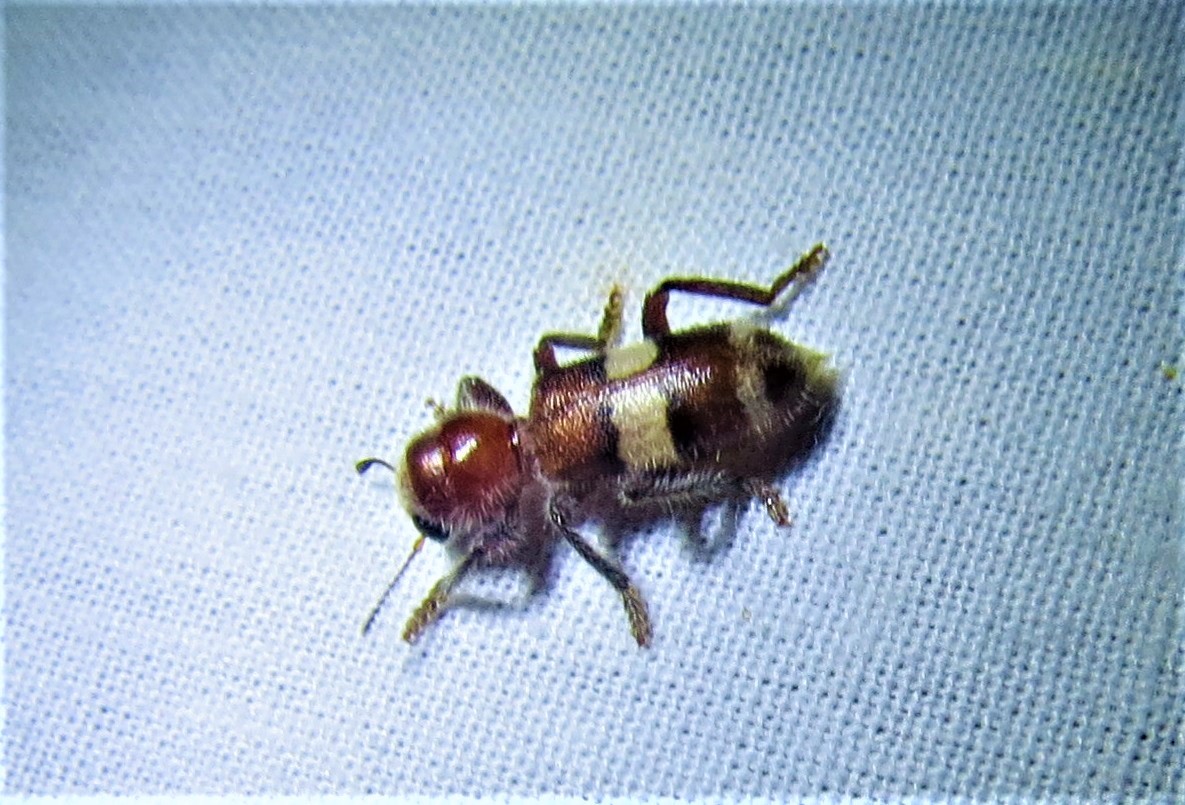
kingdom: Animalia
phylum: Arthropoda
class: Insecta
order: Coleoptera
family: Cleridae
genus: Enoclerus
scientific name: Enoclerus quadrisignatus
